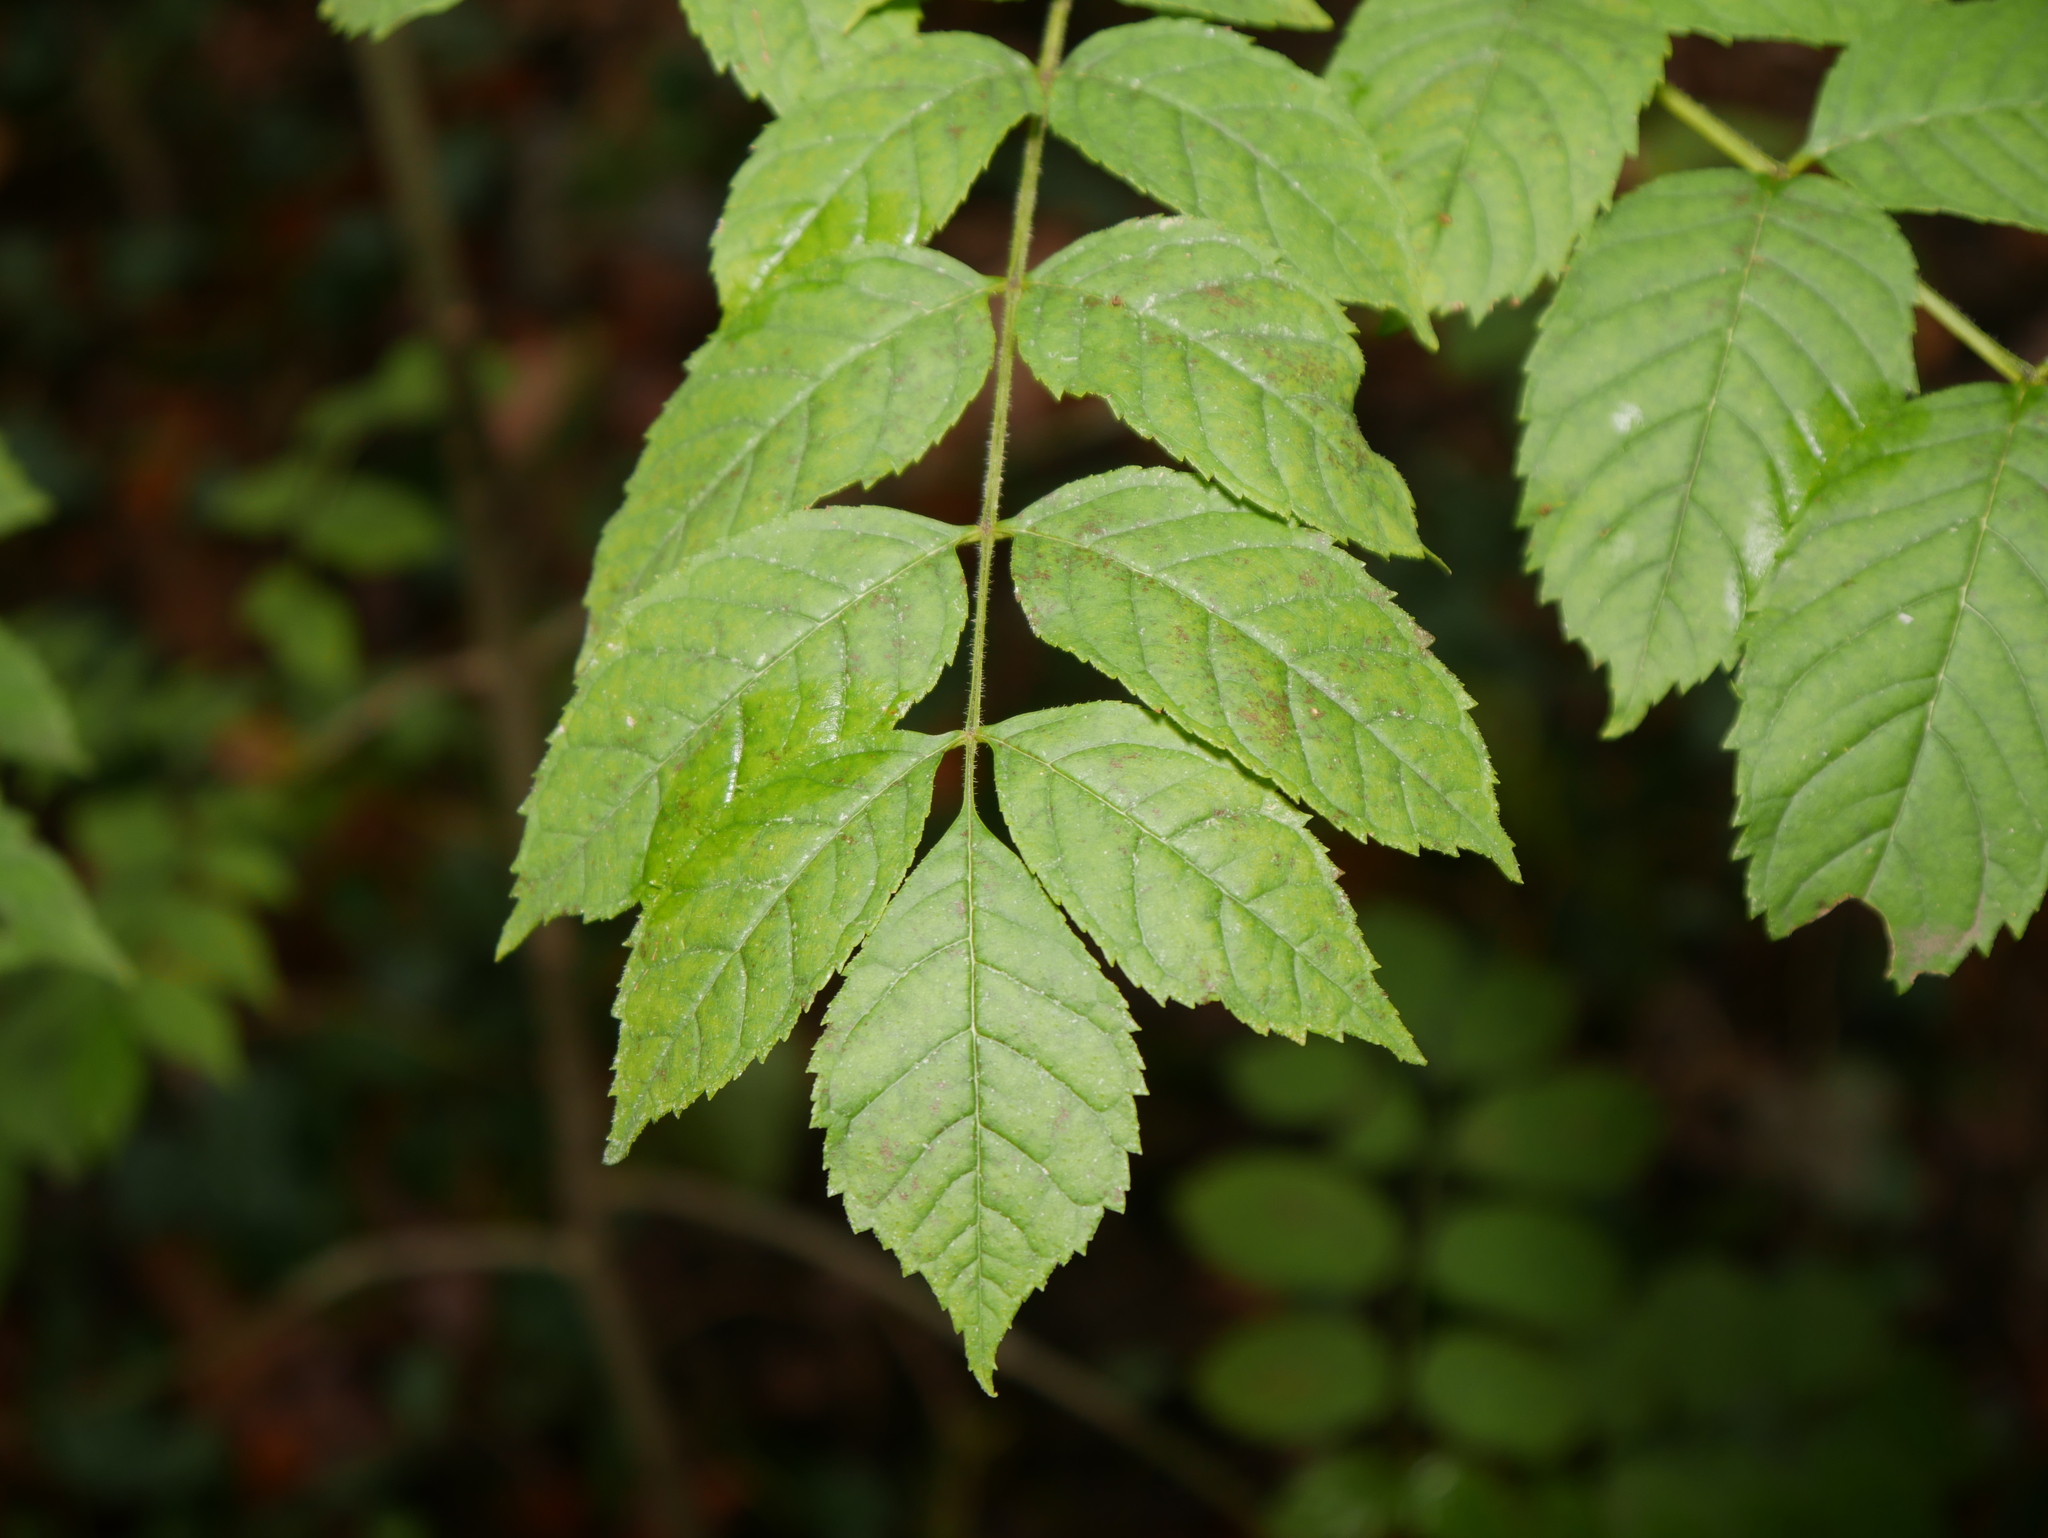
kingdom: Plantae
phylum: Tracheophyta
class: Magnoliopsida
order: Lamiales
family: Oleaceae
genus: Fraxinus
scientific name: Fraxinus excelsior
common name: European ash
